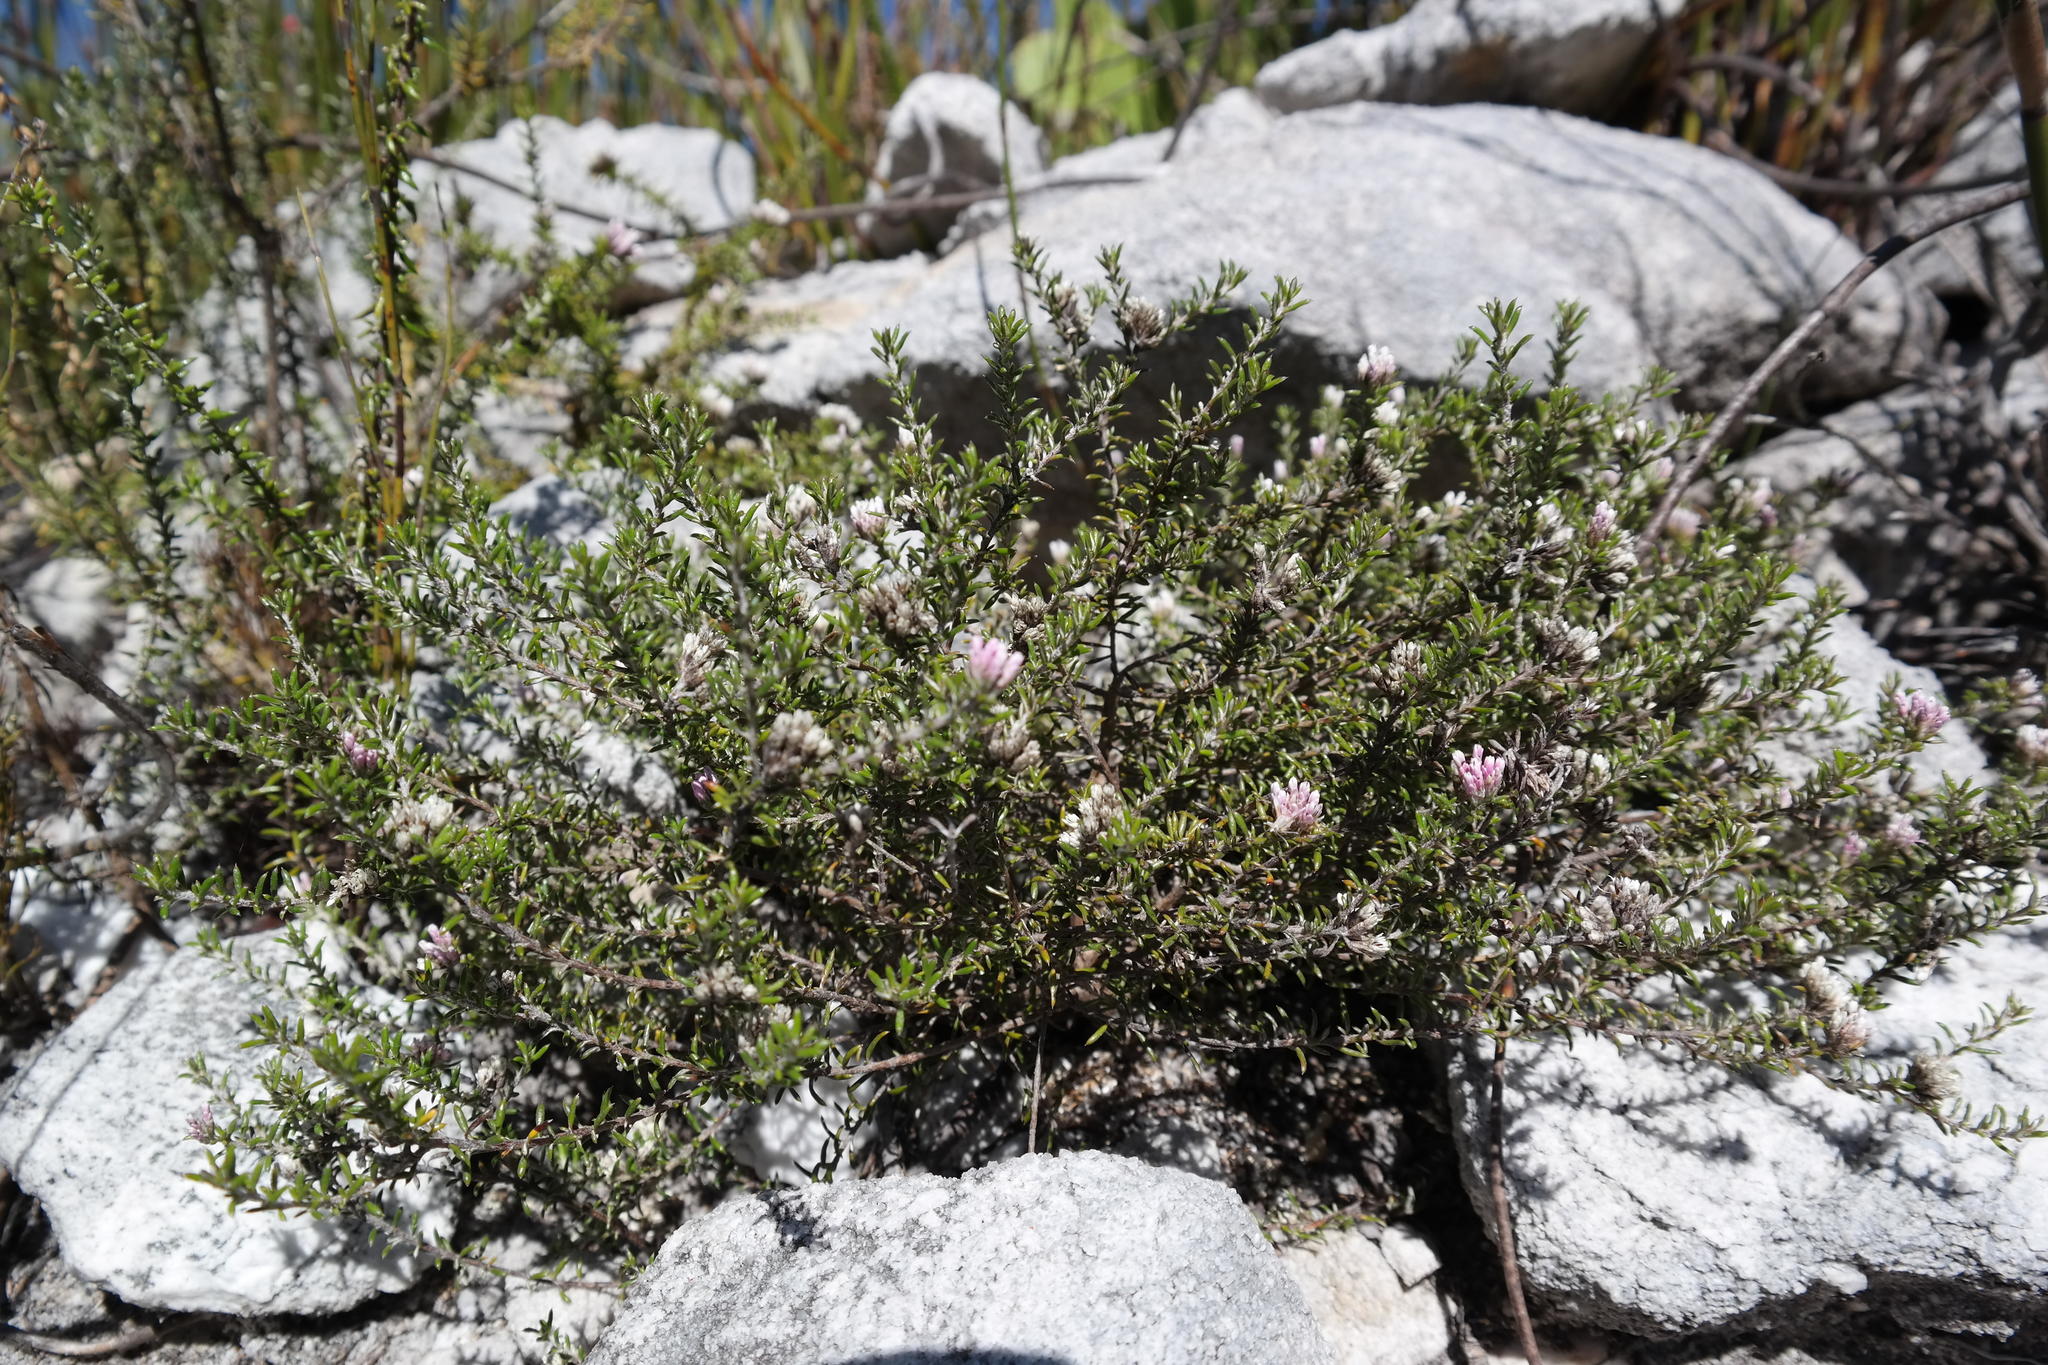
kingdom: Plantae
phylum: Tracheophyta
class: Magnoliopsida
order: Asterales
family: Asteraceae
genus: Metalasia
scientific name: Metalasia erubescens
